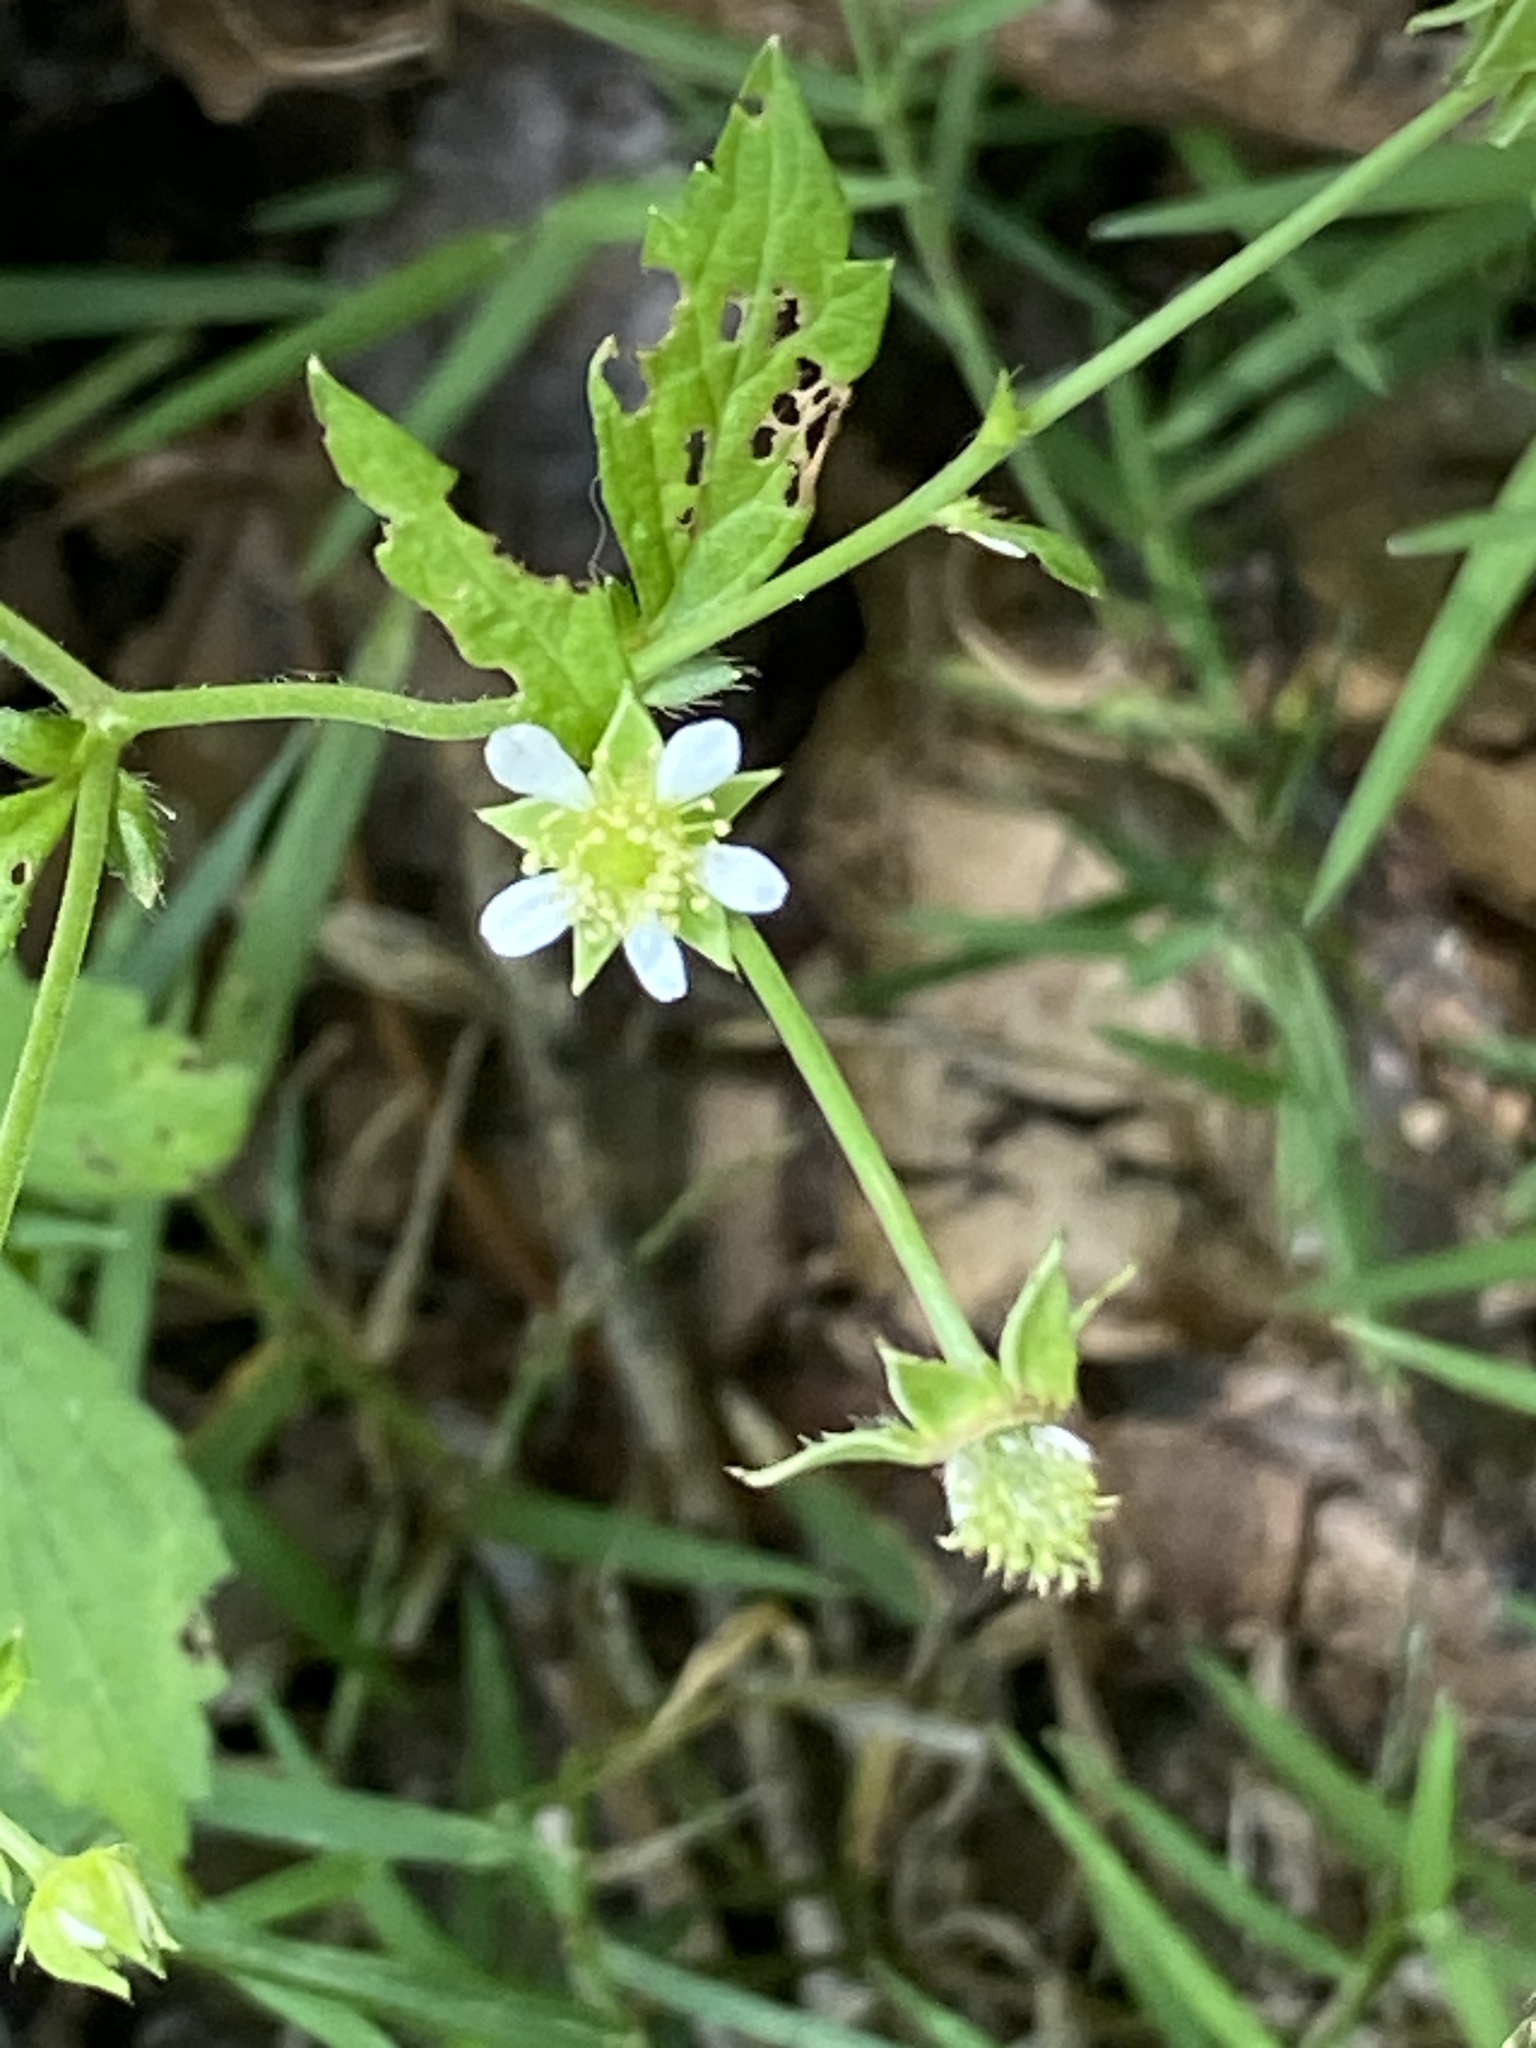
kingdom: Plantae
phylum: Tracheophyta
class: Magnoliopsida
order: Rosales
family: Rosaceae
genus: Geum
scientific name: Geum canadense
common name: White avens
